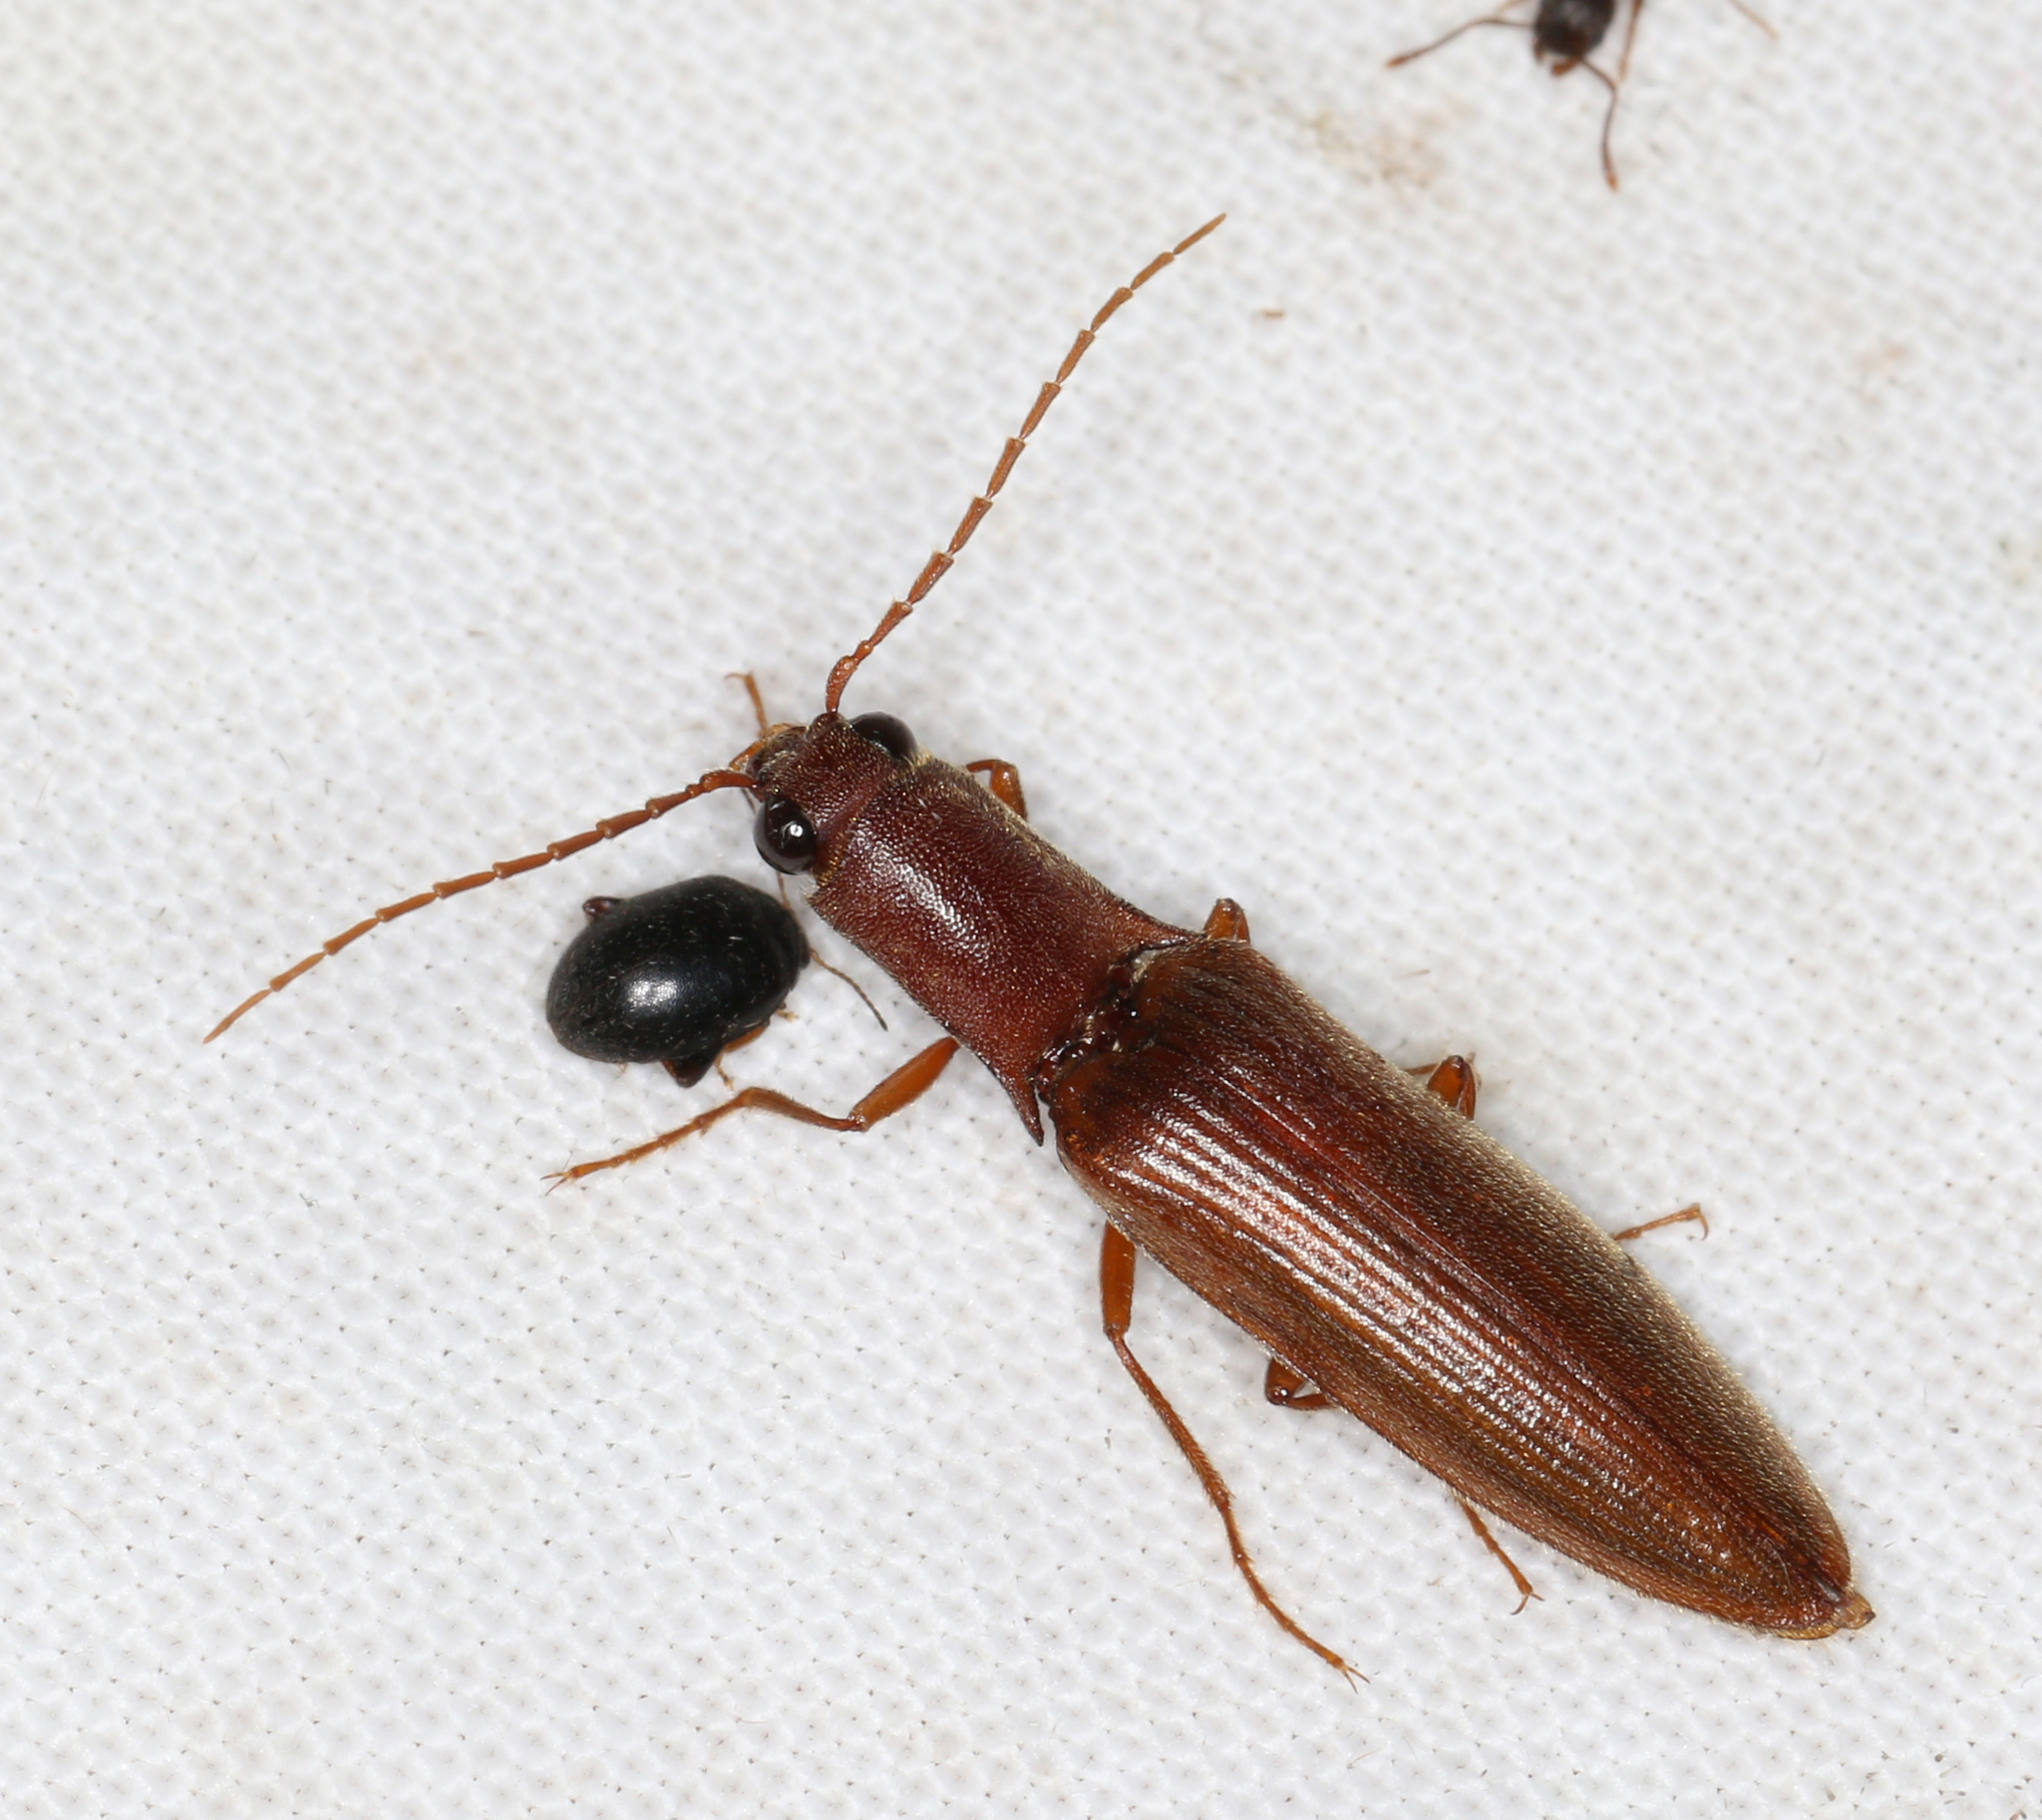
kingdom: Animalia
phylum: Arthropoda
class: Insecta
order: Coleoptera
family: Elateridae
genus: Proludius
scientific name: Proludius pyrros
